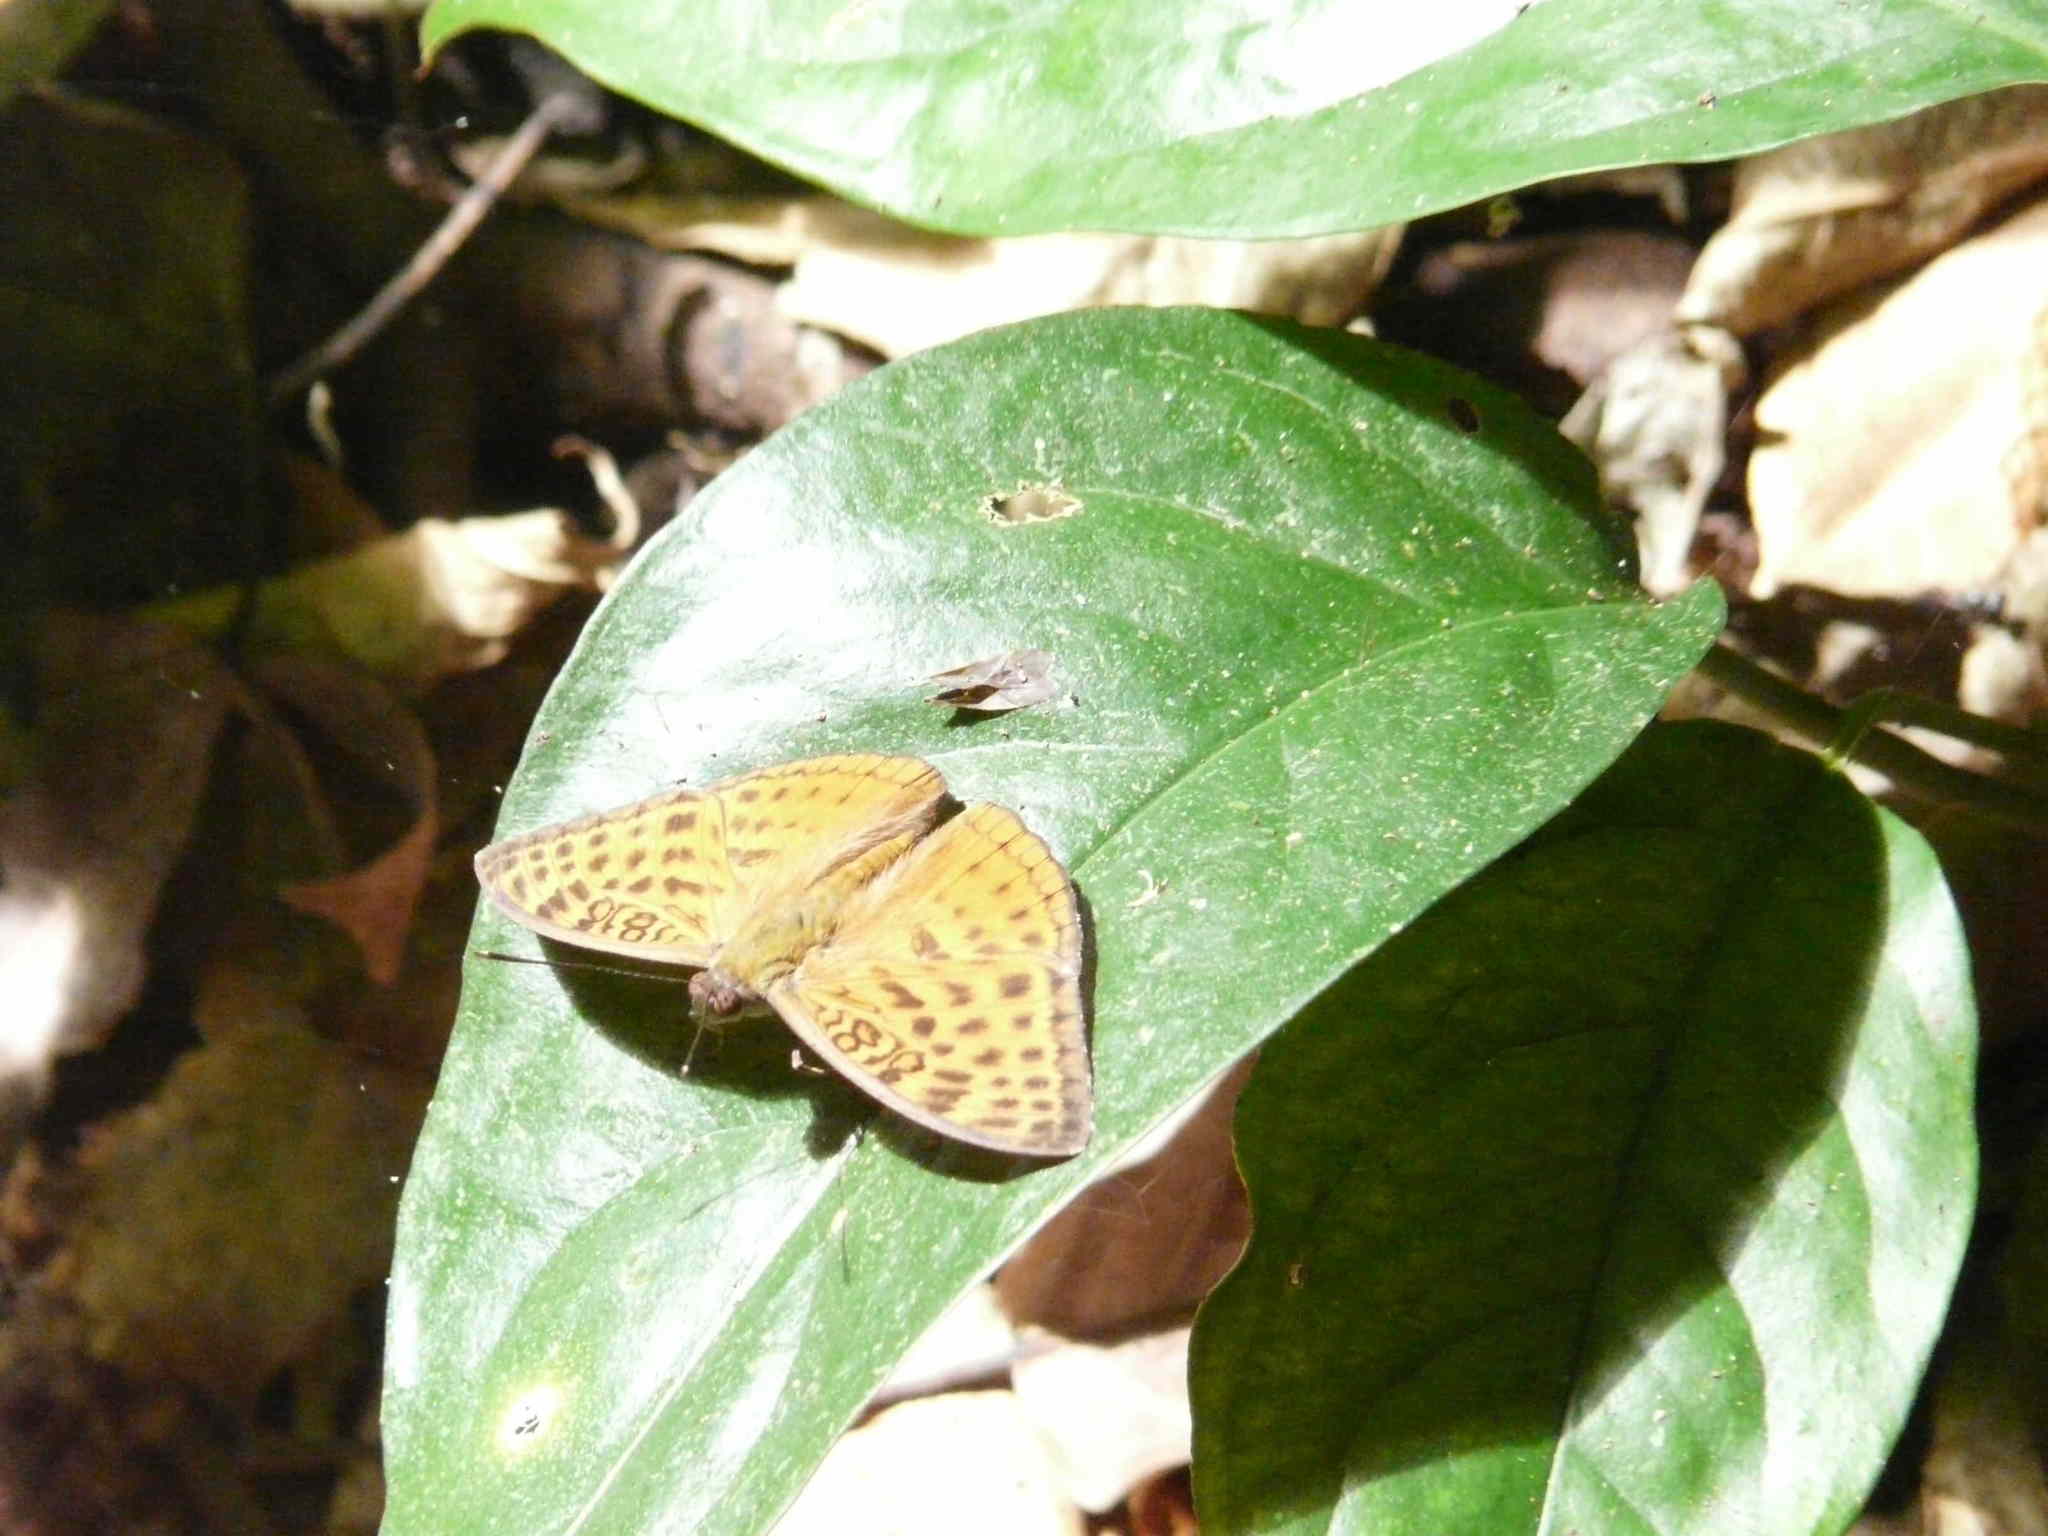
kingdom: Animalia
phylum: Arthropoda
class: Insecta
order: Lepidoptera
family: Nymphalidae
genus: Bebearia
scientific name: Bebearia zonara
